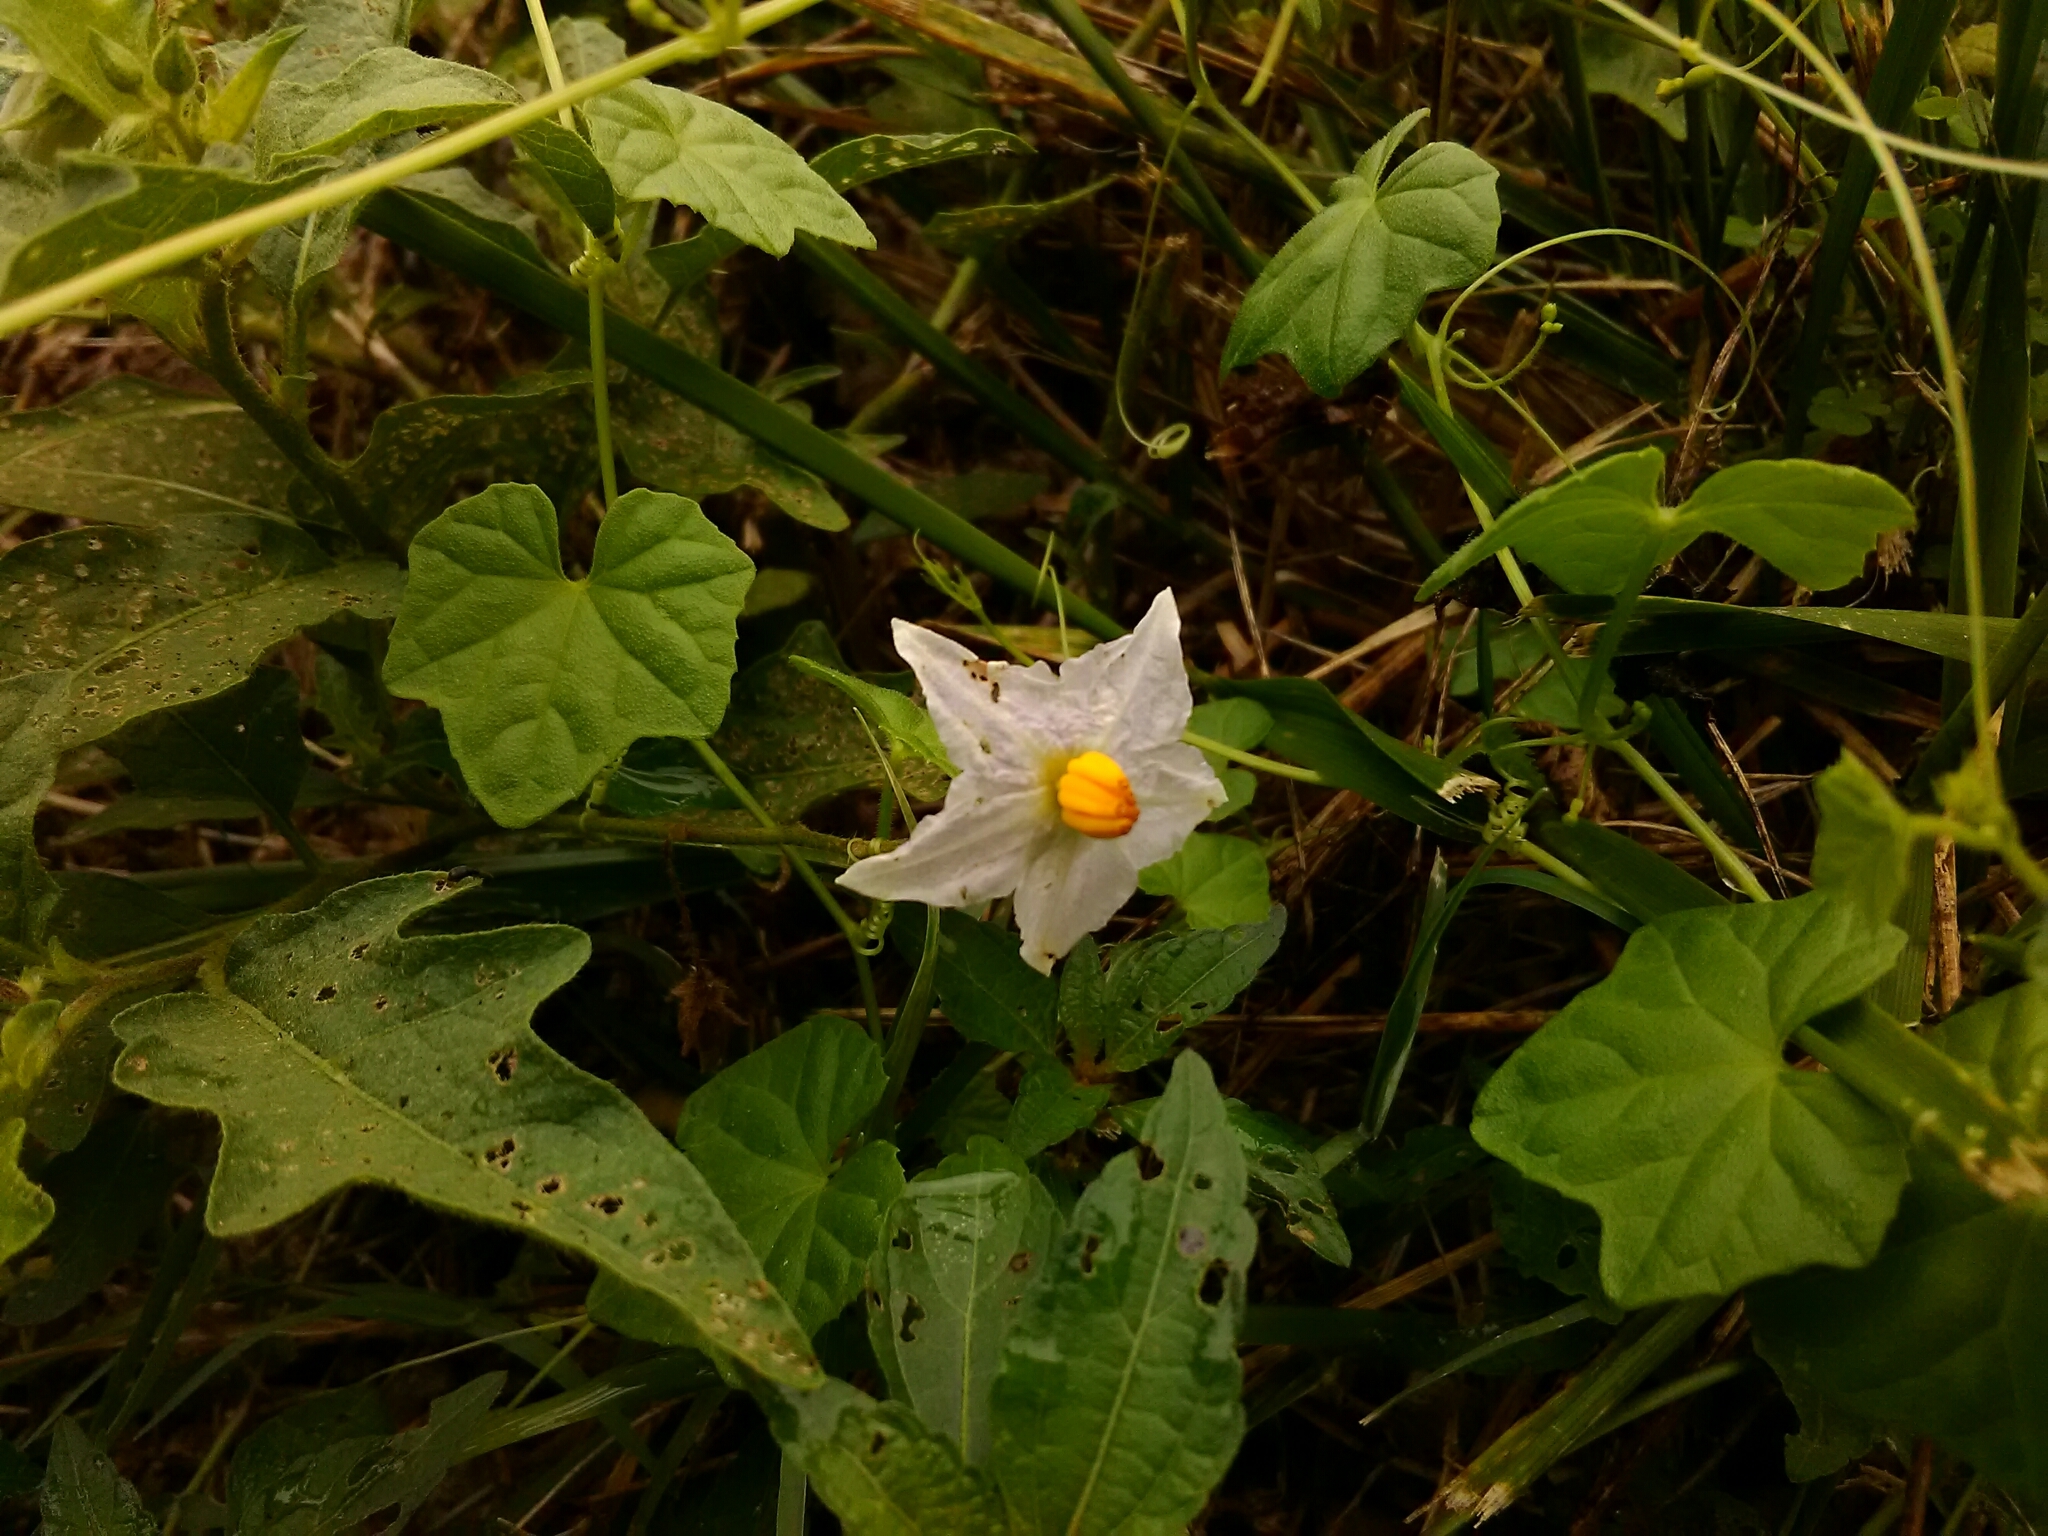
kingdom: Plantae
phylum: Tracheophyta
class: Magnoliopsida
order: Solanales
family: Solanaceae
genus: Solanum
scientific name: Solanum carolinense
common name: Horse-nettle
